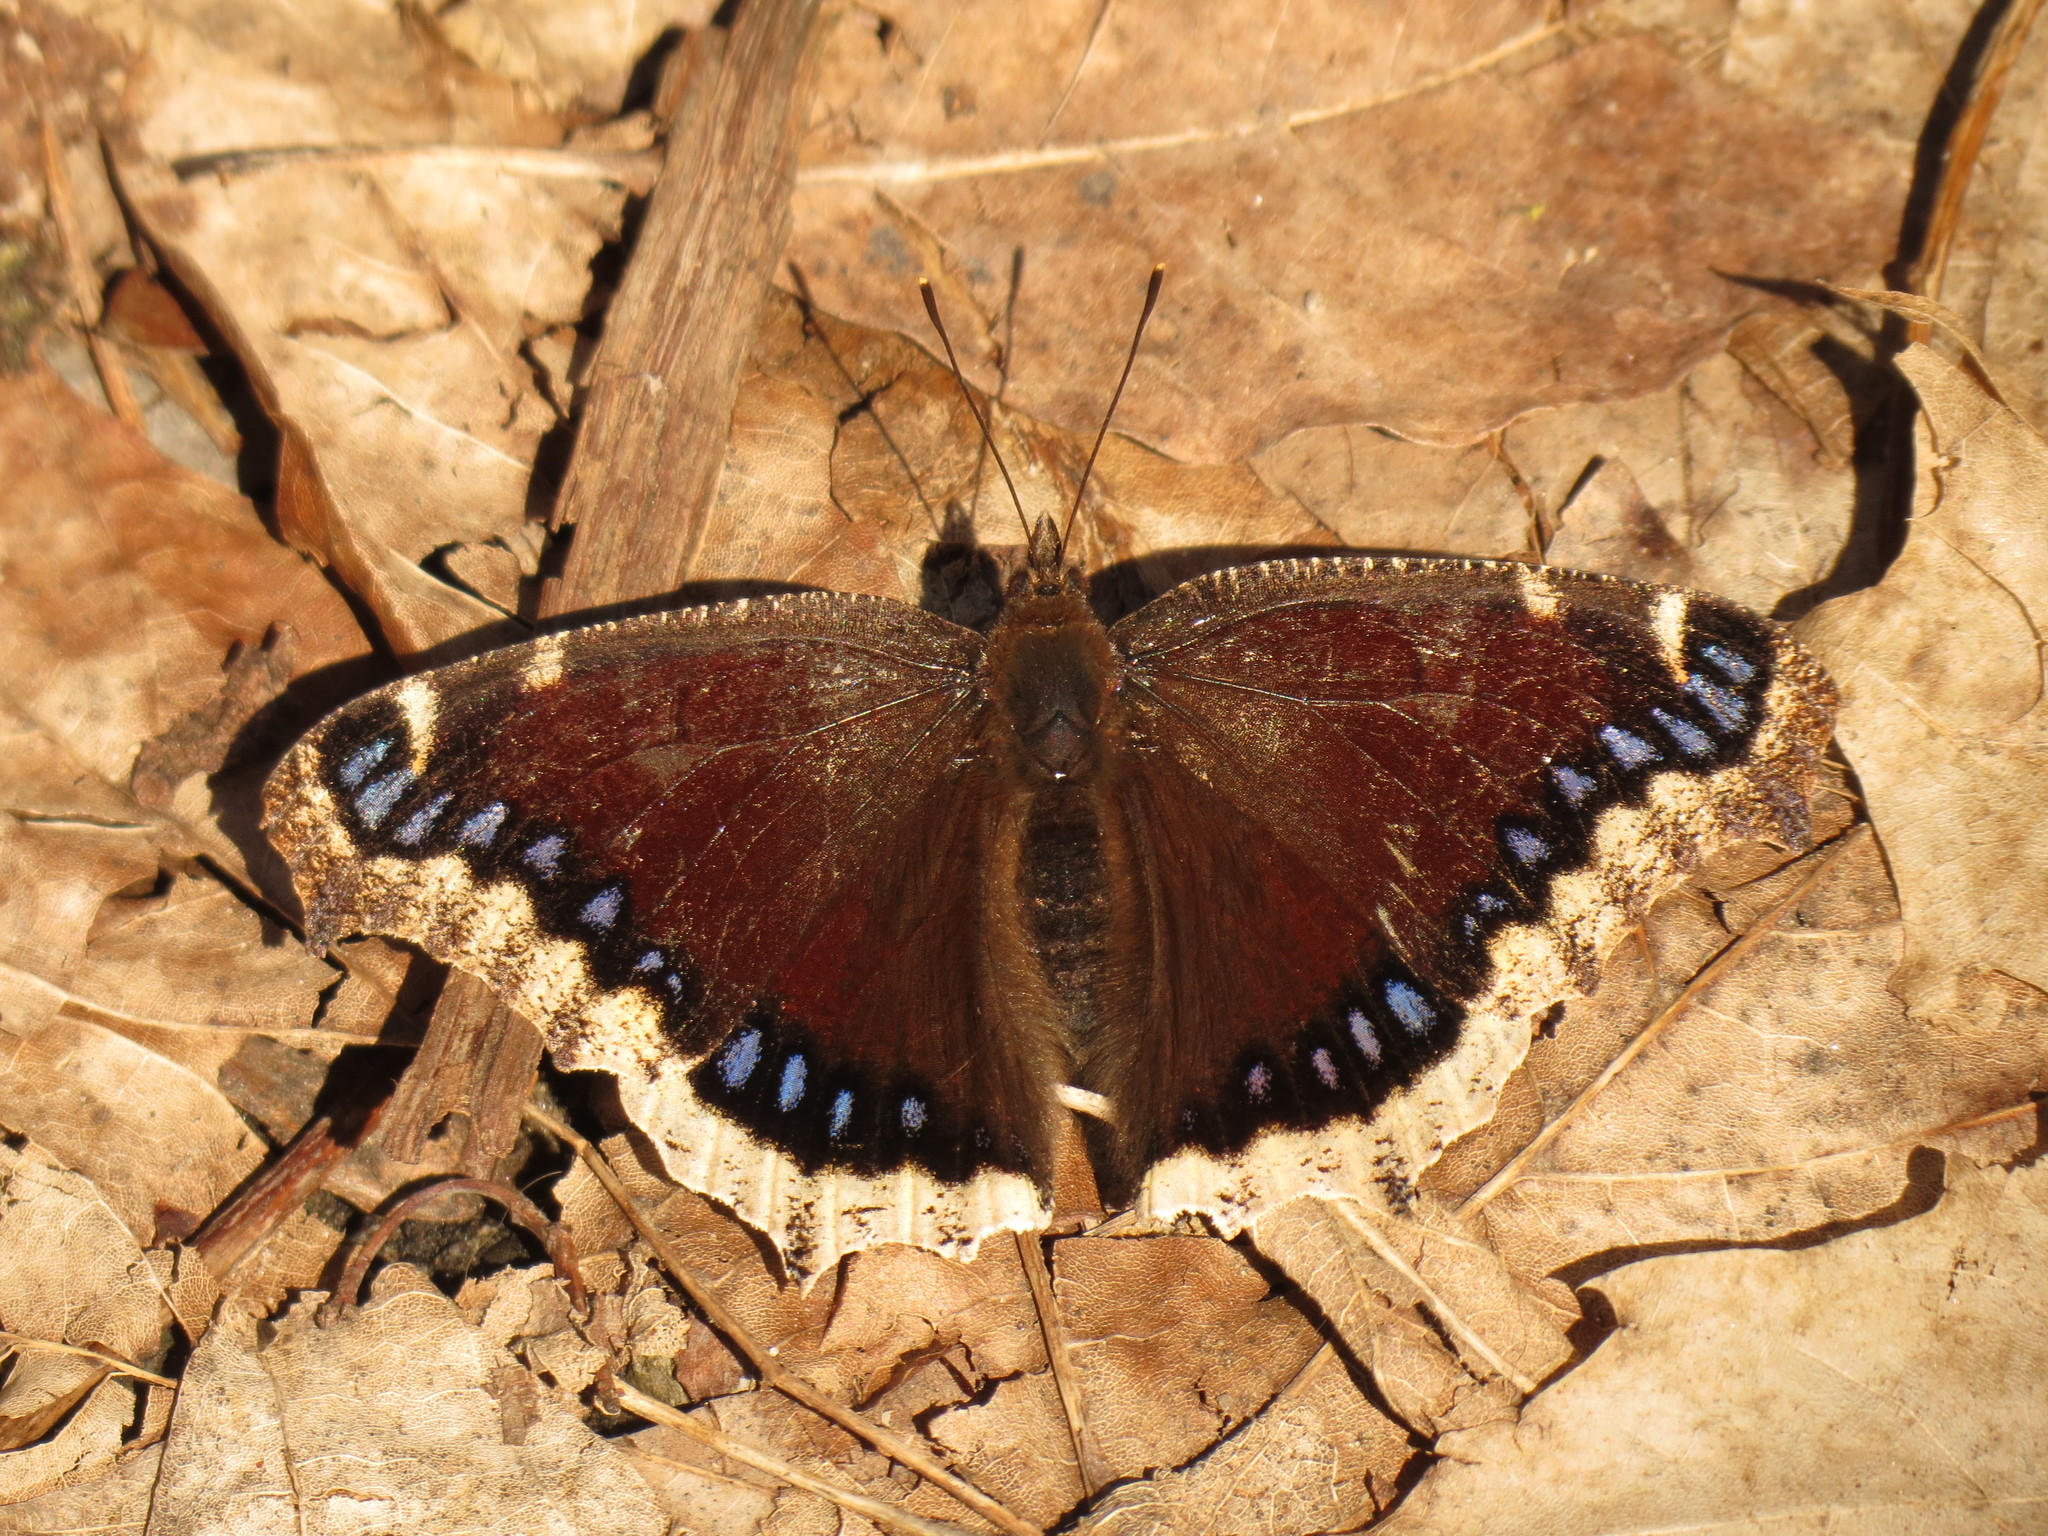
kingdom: Animalia
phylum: Arthropoda
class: Insecta
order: Lepidoptera
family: Nymphalidae
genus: Nymphalis
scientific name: Nymphalis antiopa
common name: Camberwell beauty
